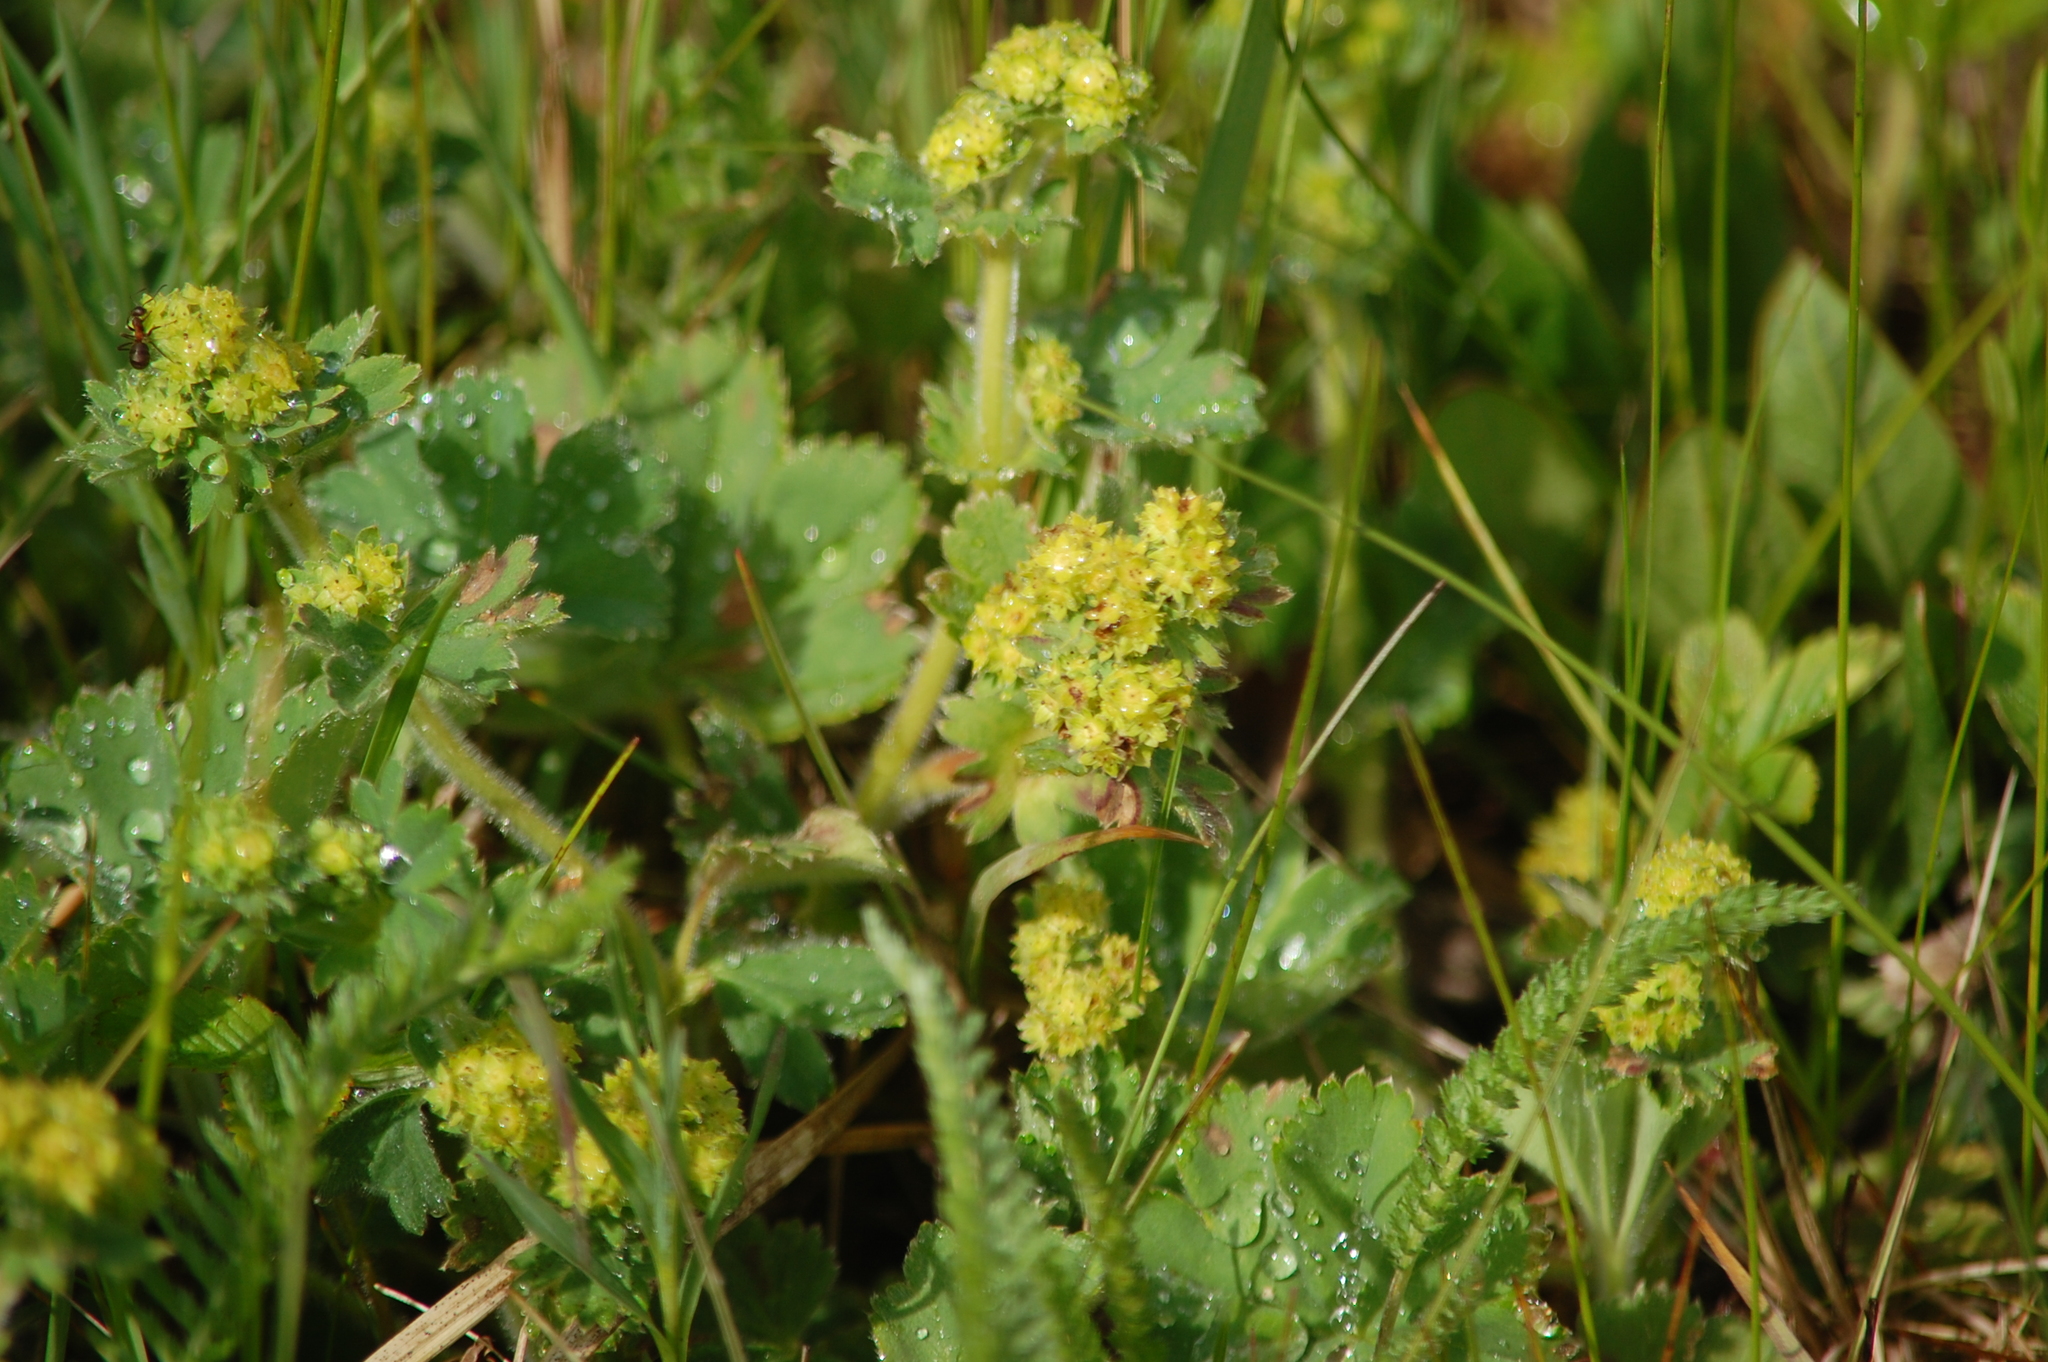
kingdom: Plantae
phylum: Tracheophyta
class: Magnoliopsida
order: Rosales
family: Rosaceae
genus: Alchemilla
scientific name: Alchemilla
